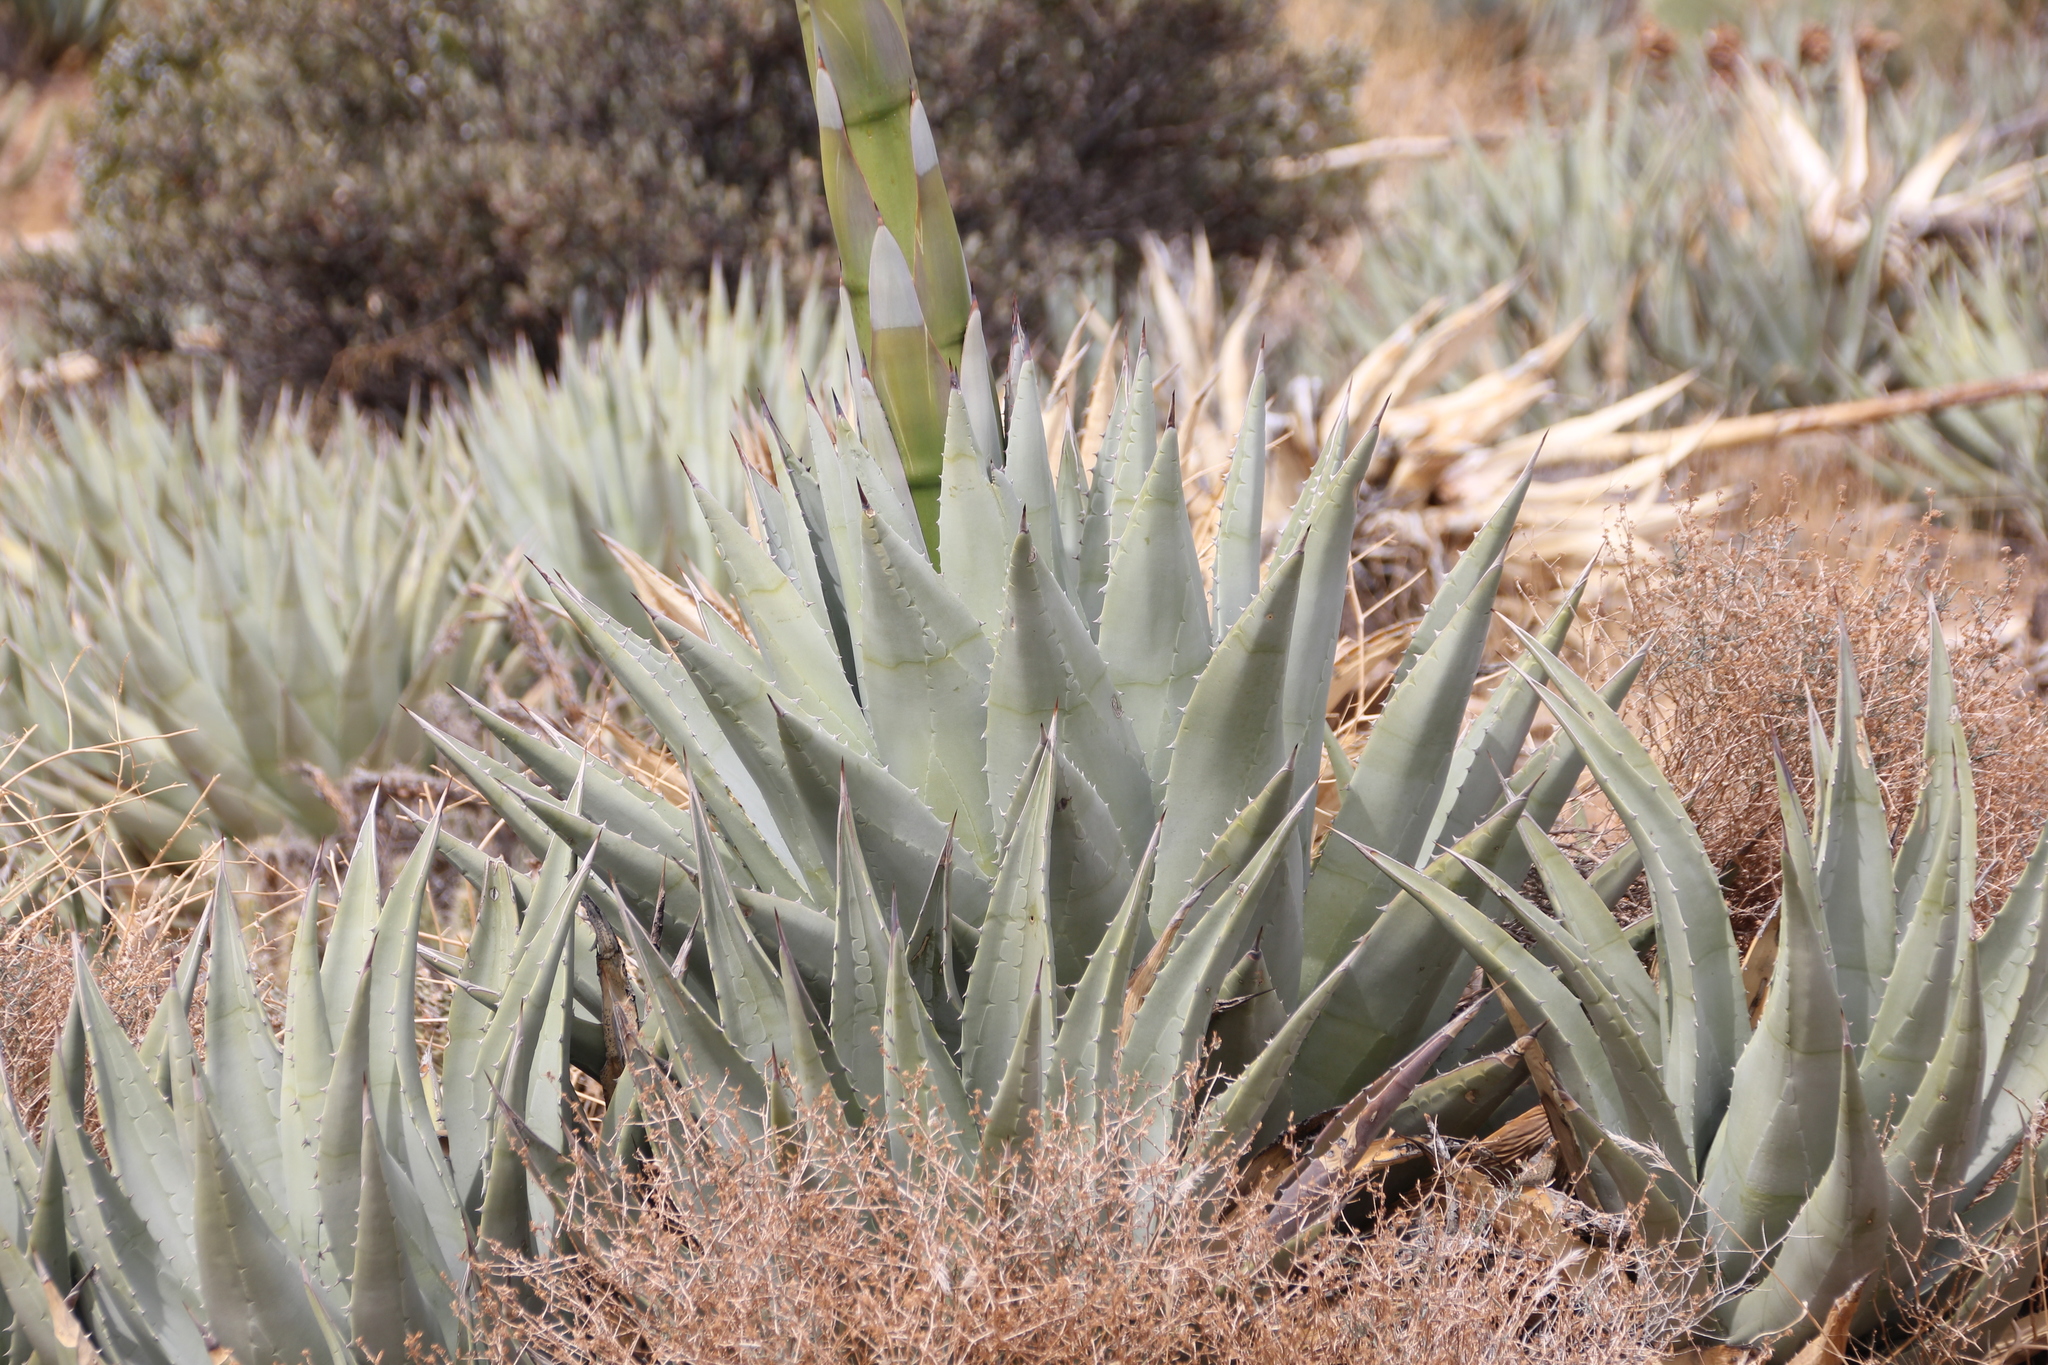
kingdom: Plantae
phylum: Tracheophyta
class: Liliopsida
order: Asparagales
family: Asparagaceae
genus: Agave
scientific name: Agave deserti
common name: Desert agave
